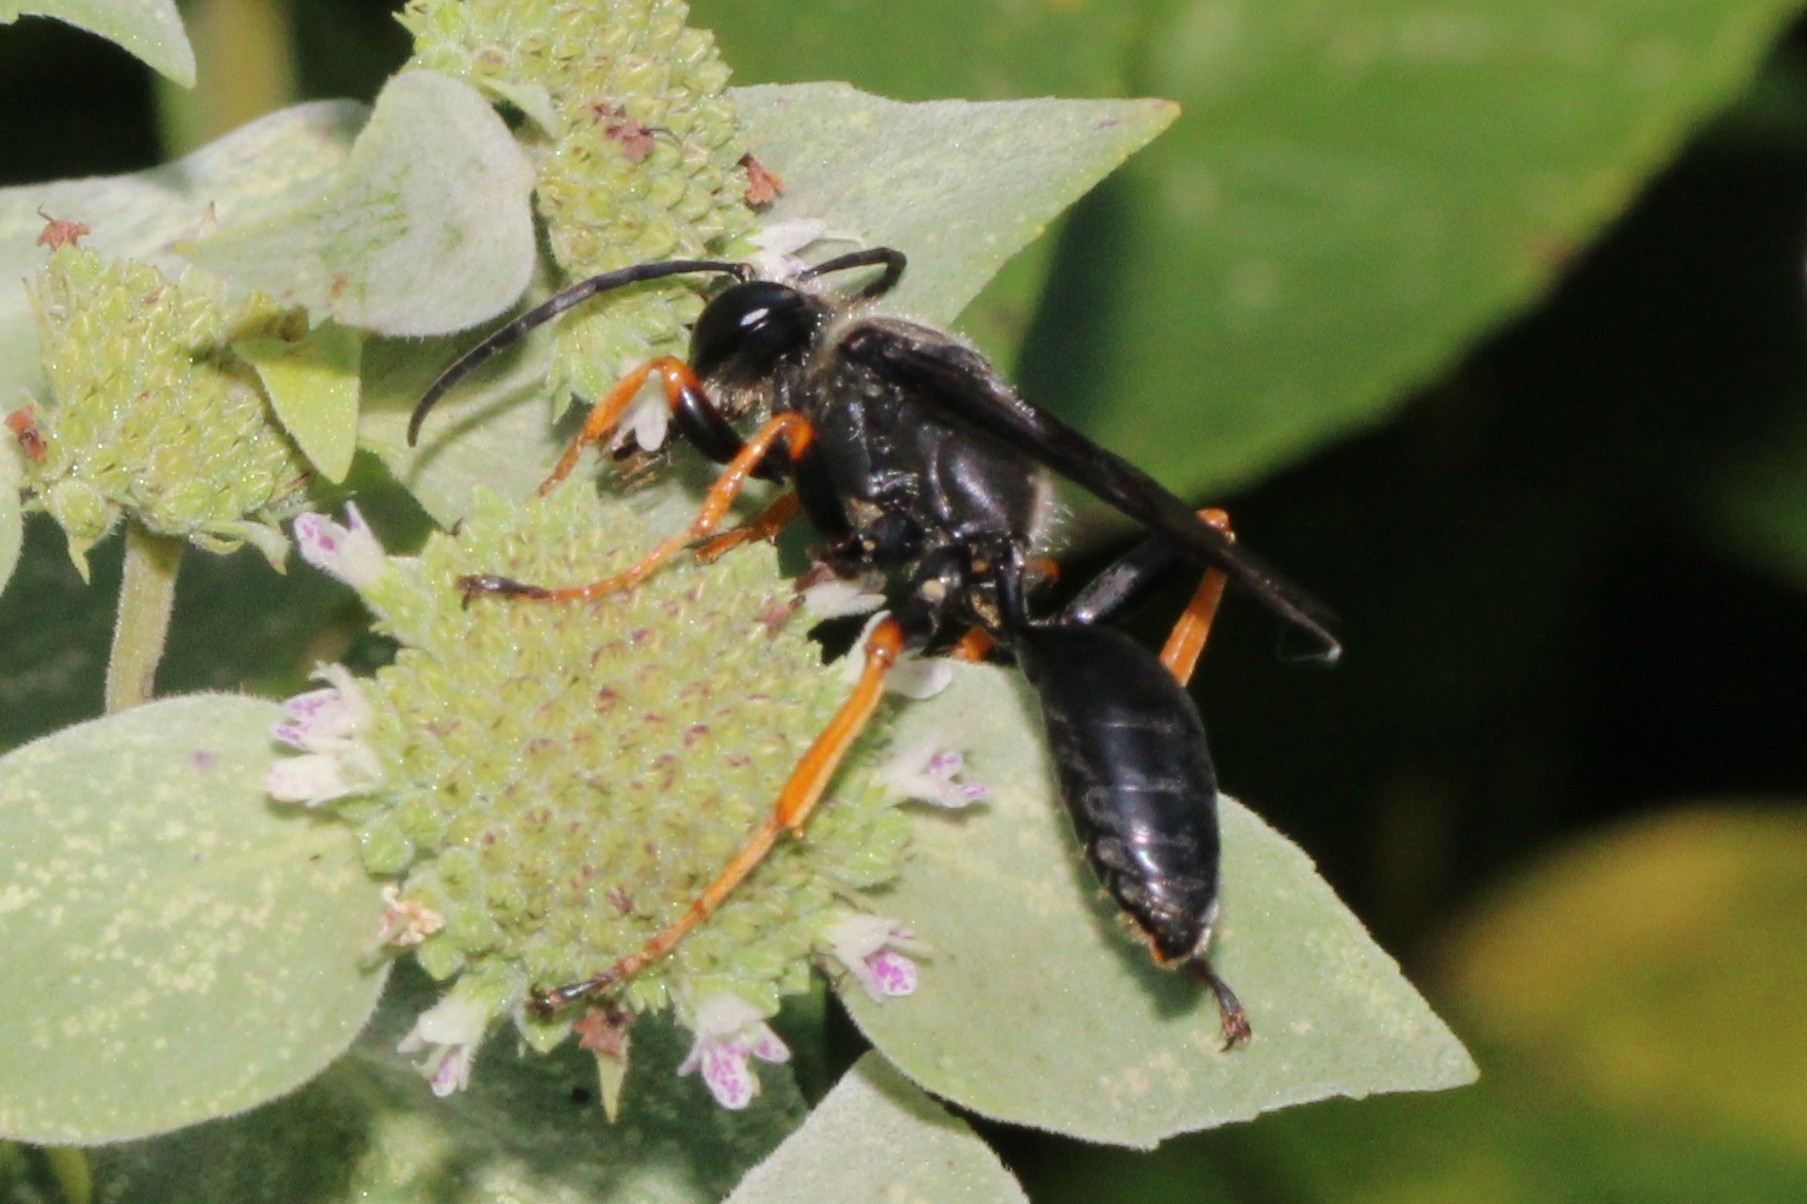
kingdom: Animalia
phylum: Arthropoda
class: Insecta
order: Hymenoptera
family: Sphecidae
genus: Sphex
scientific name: Sphex nudus
